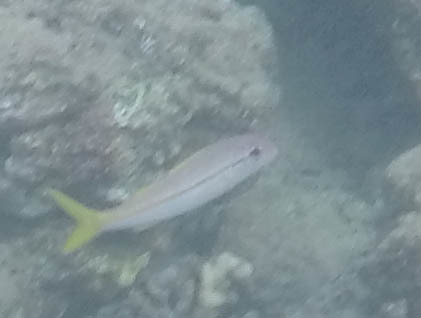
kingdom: Animalia
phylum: Chordata
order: Perciformes
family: Mullidae
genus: Mulloidichthys
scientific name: Mulloidichthys vanicolensis
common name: Yellowfin goatfish
